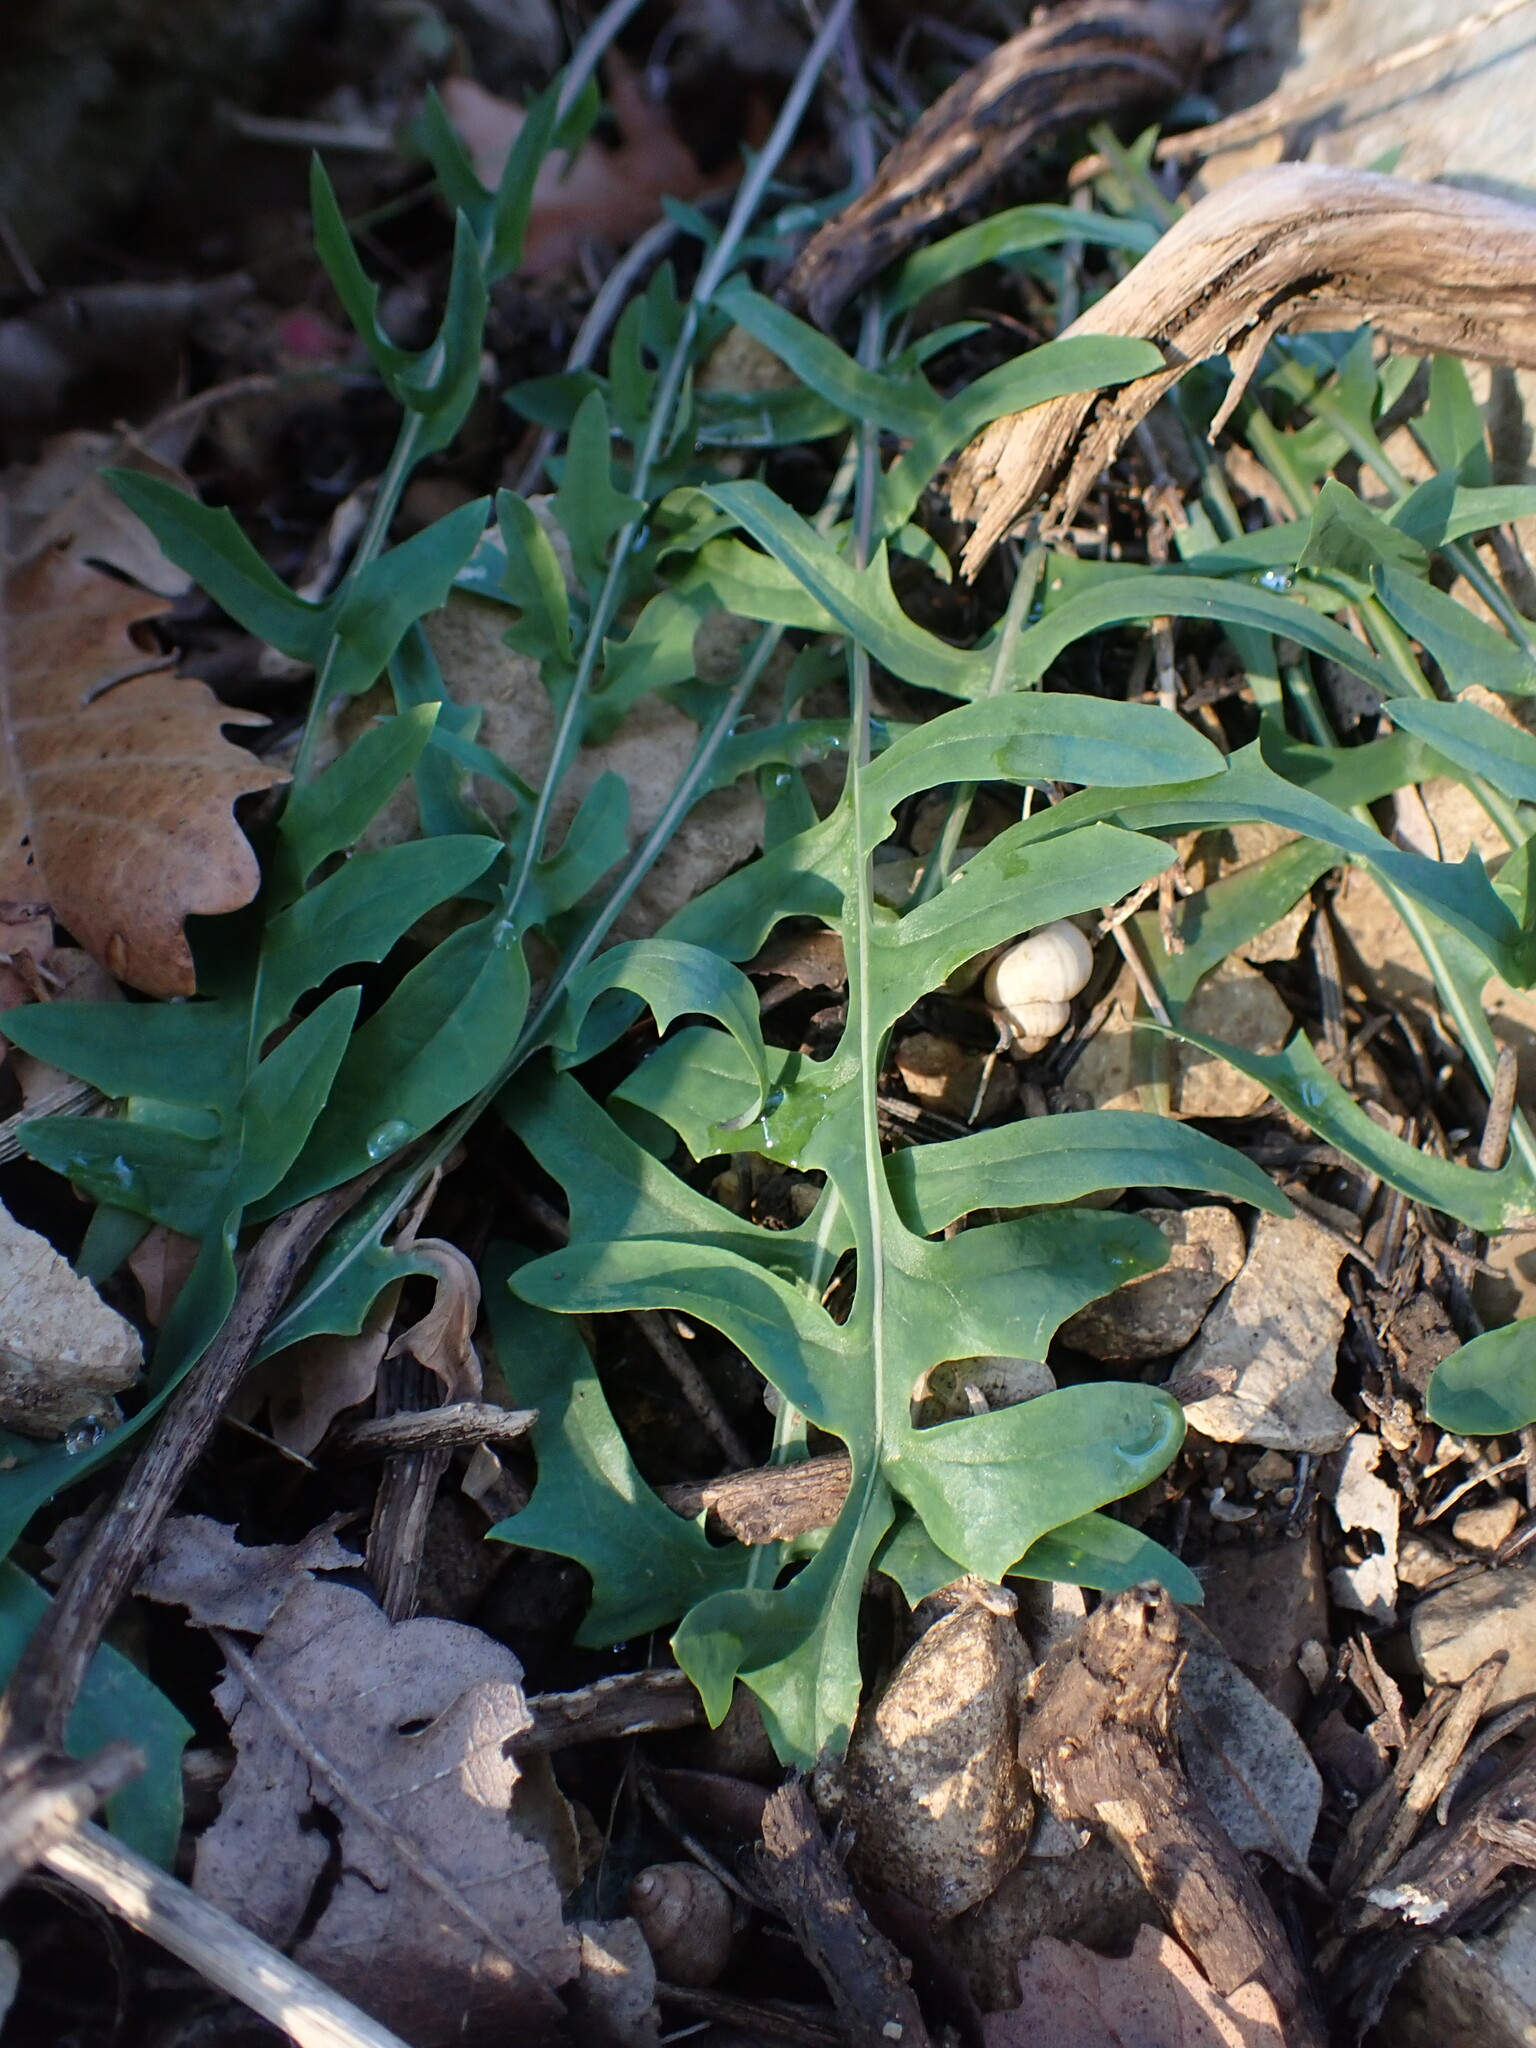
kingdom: Plantae
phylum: Tracheophyta
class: Magnoliopsida
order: Asterales
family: Asteraceae
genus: Lactuca
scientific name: Lactuca perennis
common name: Mountain lettuce
